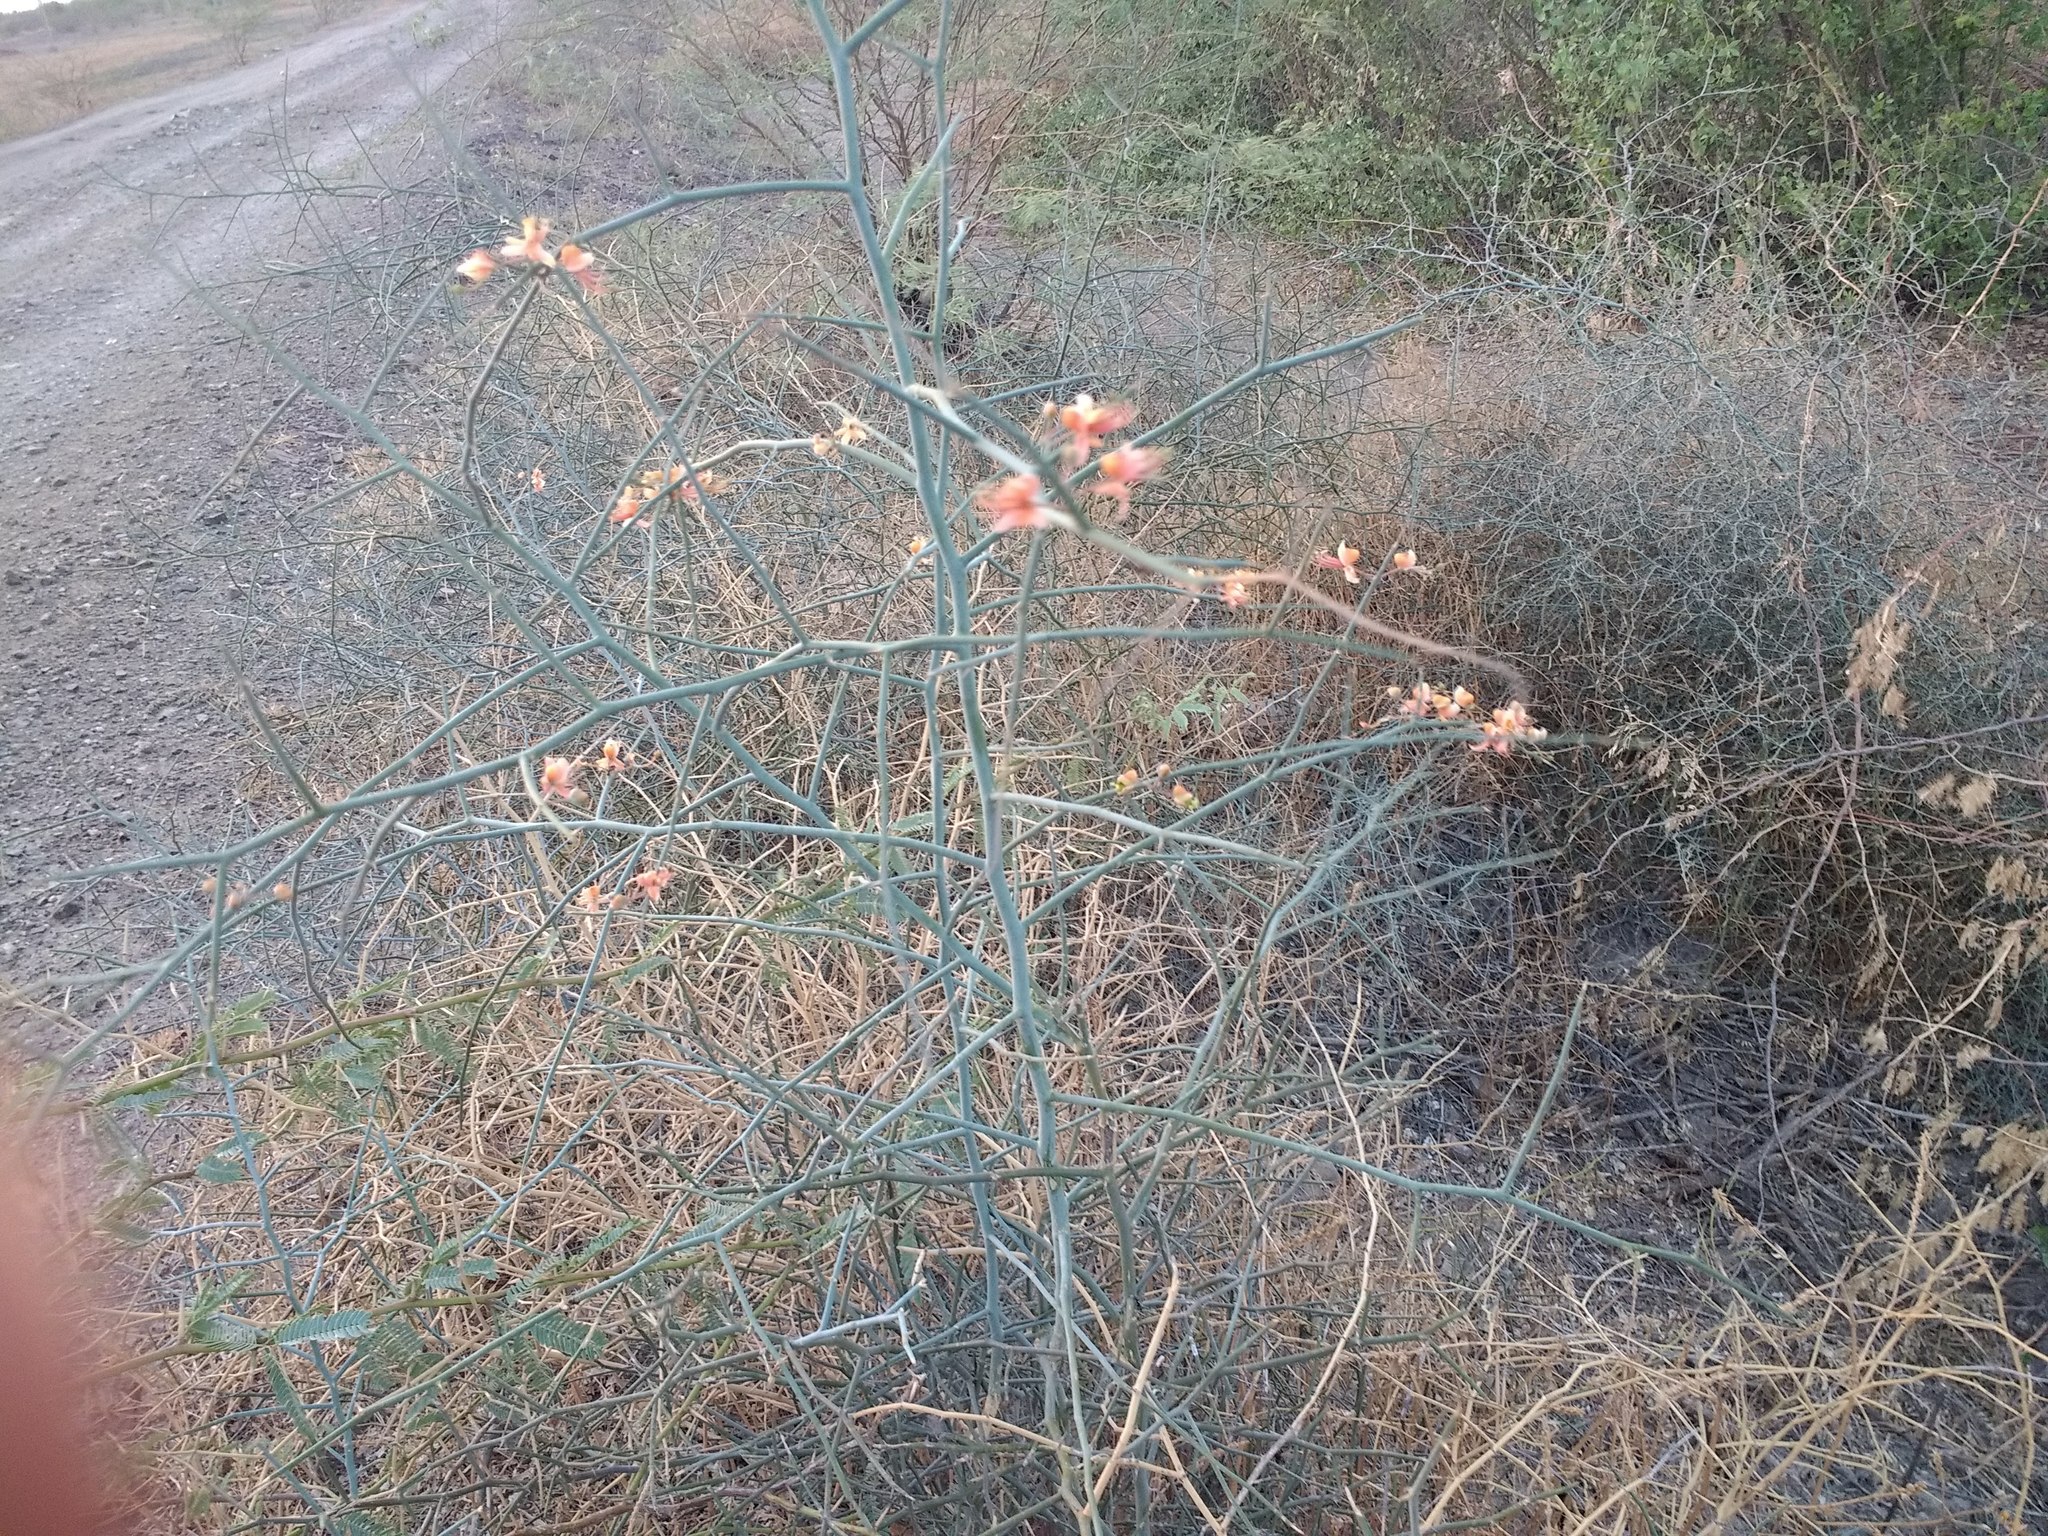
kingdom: Plantae
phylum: Tracheophyta
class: Magnoliopsida
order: Brassicales
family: Capparaceae
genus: Capparis
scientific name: Capparis decidua
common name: Sodada
